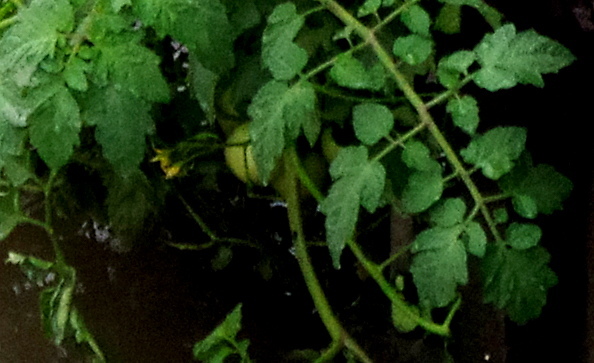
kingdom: Plantae
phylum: Tracheophyta
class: Magnoliopsida
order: Solanales
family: Solanaceae
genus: Solanum
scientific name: Solanum lycopersicum
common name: Garden tomato
